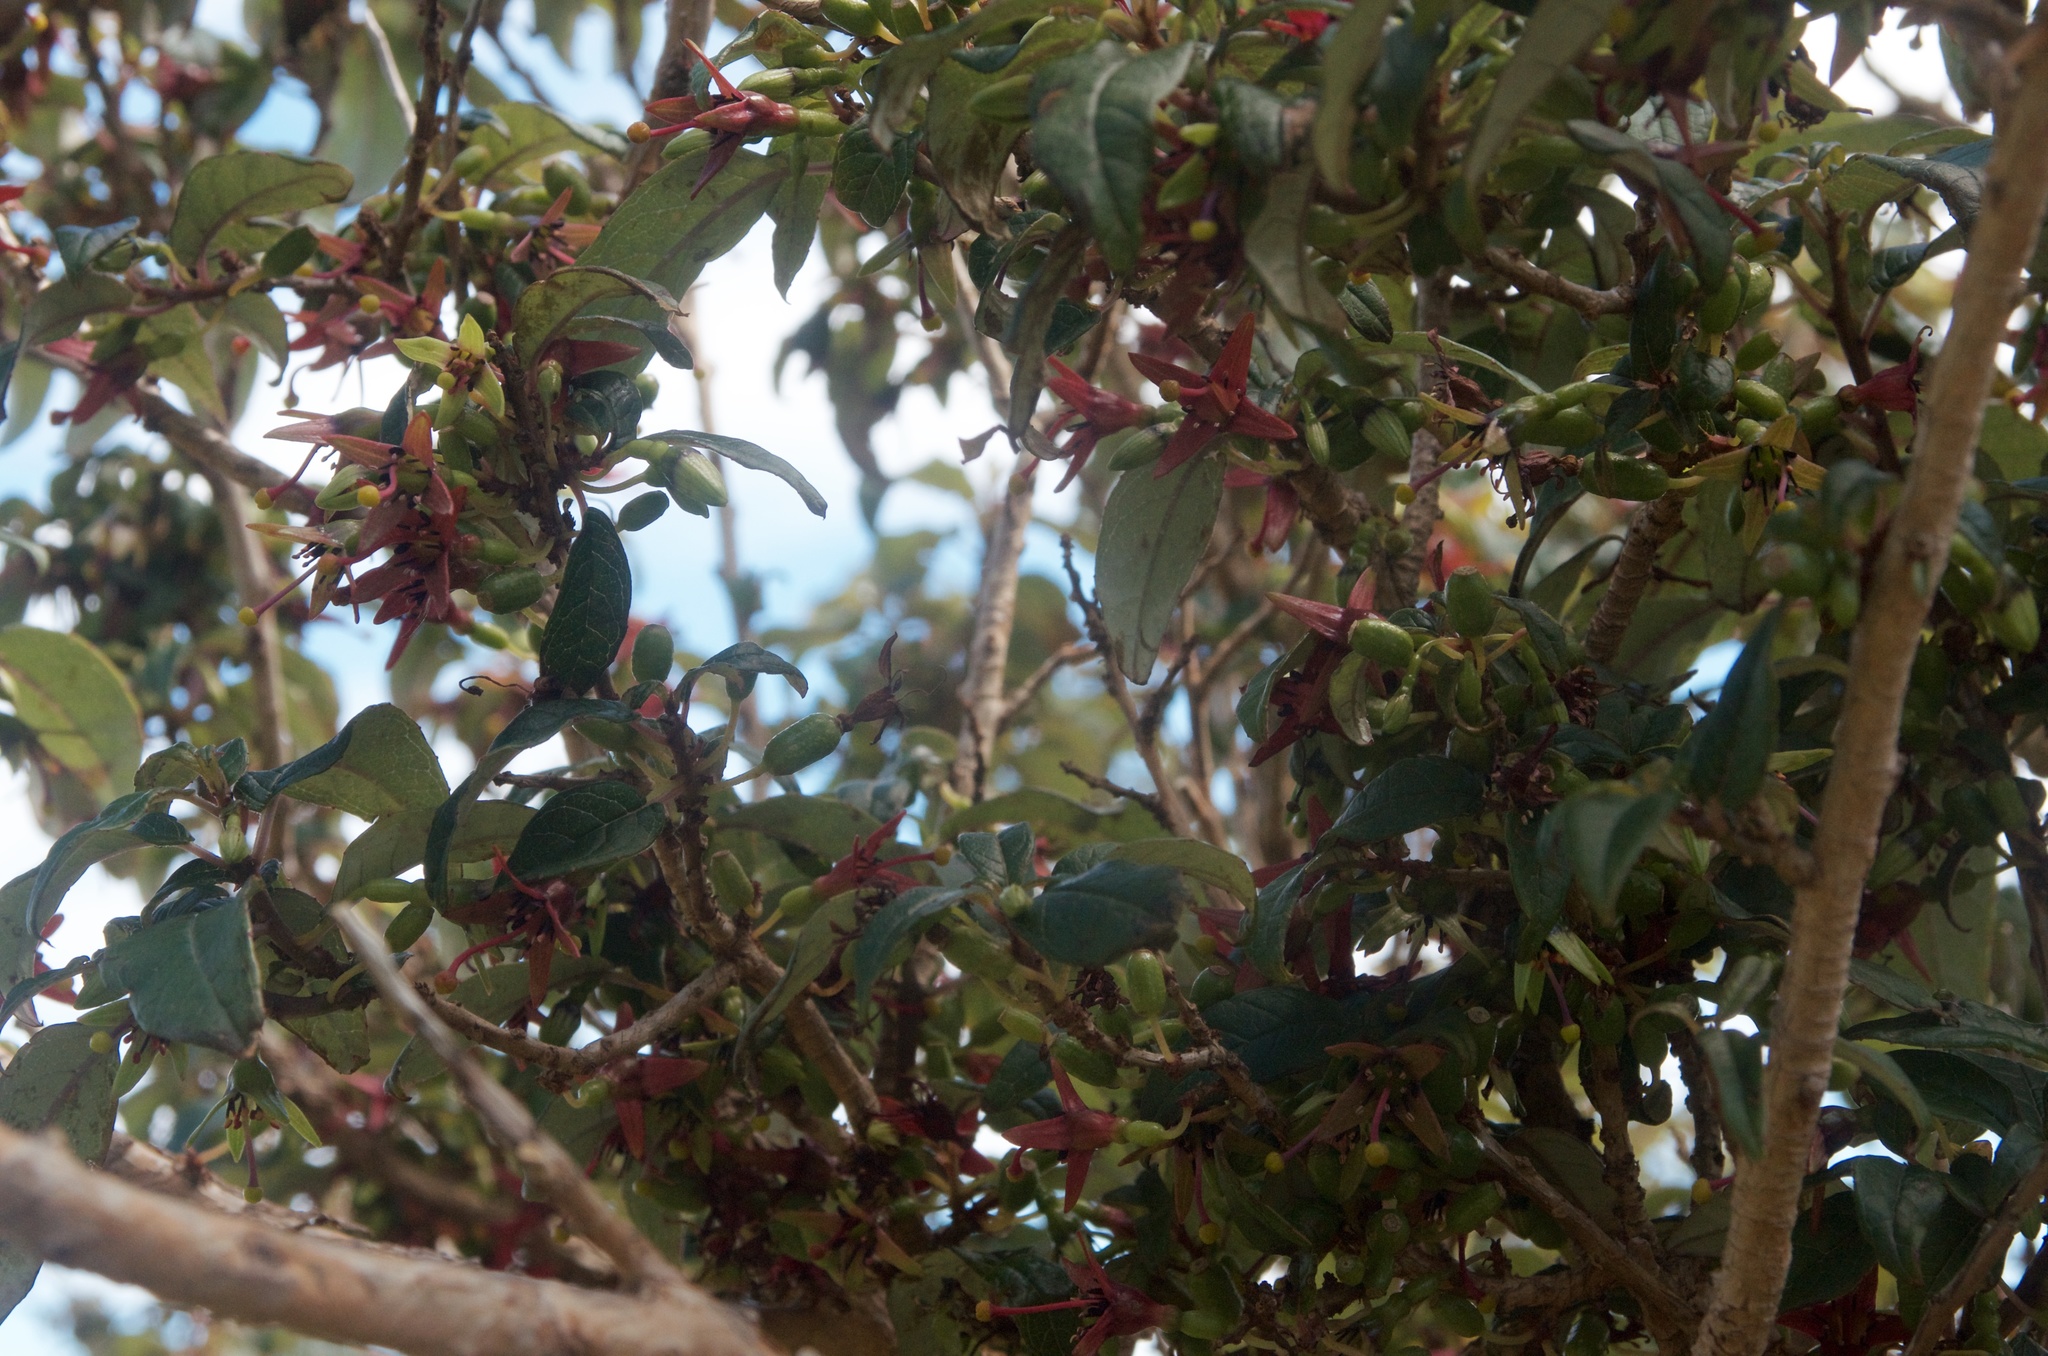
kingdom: Plantae
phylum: Tracheophyta
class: Magnoliopsida
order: Myrtales
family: Onagraceae
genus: Fuchsia
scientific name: Fuchsia excorticata
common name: Tree fuchsia
